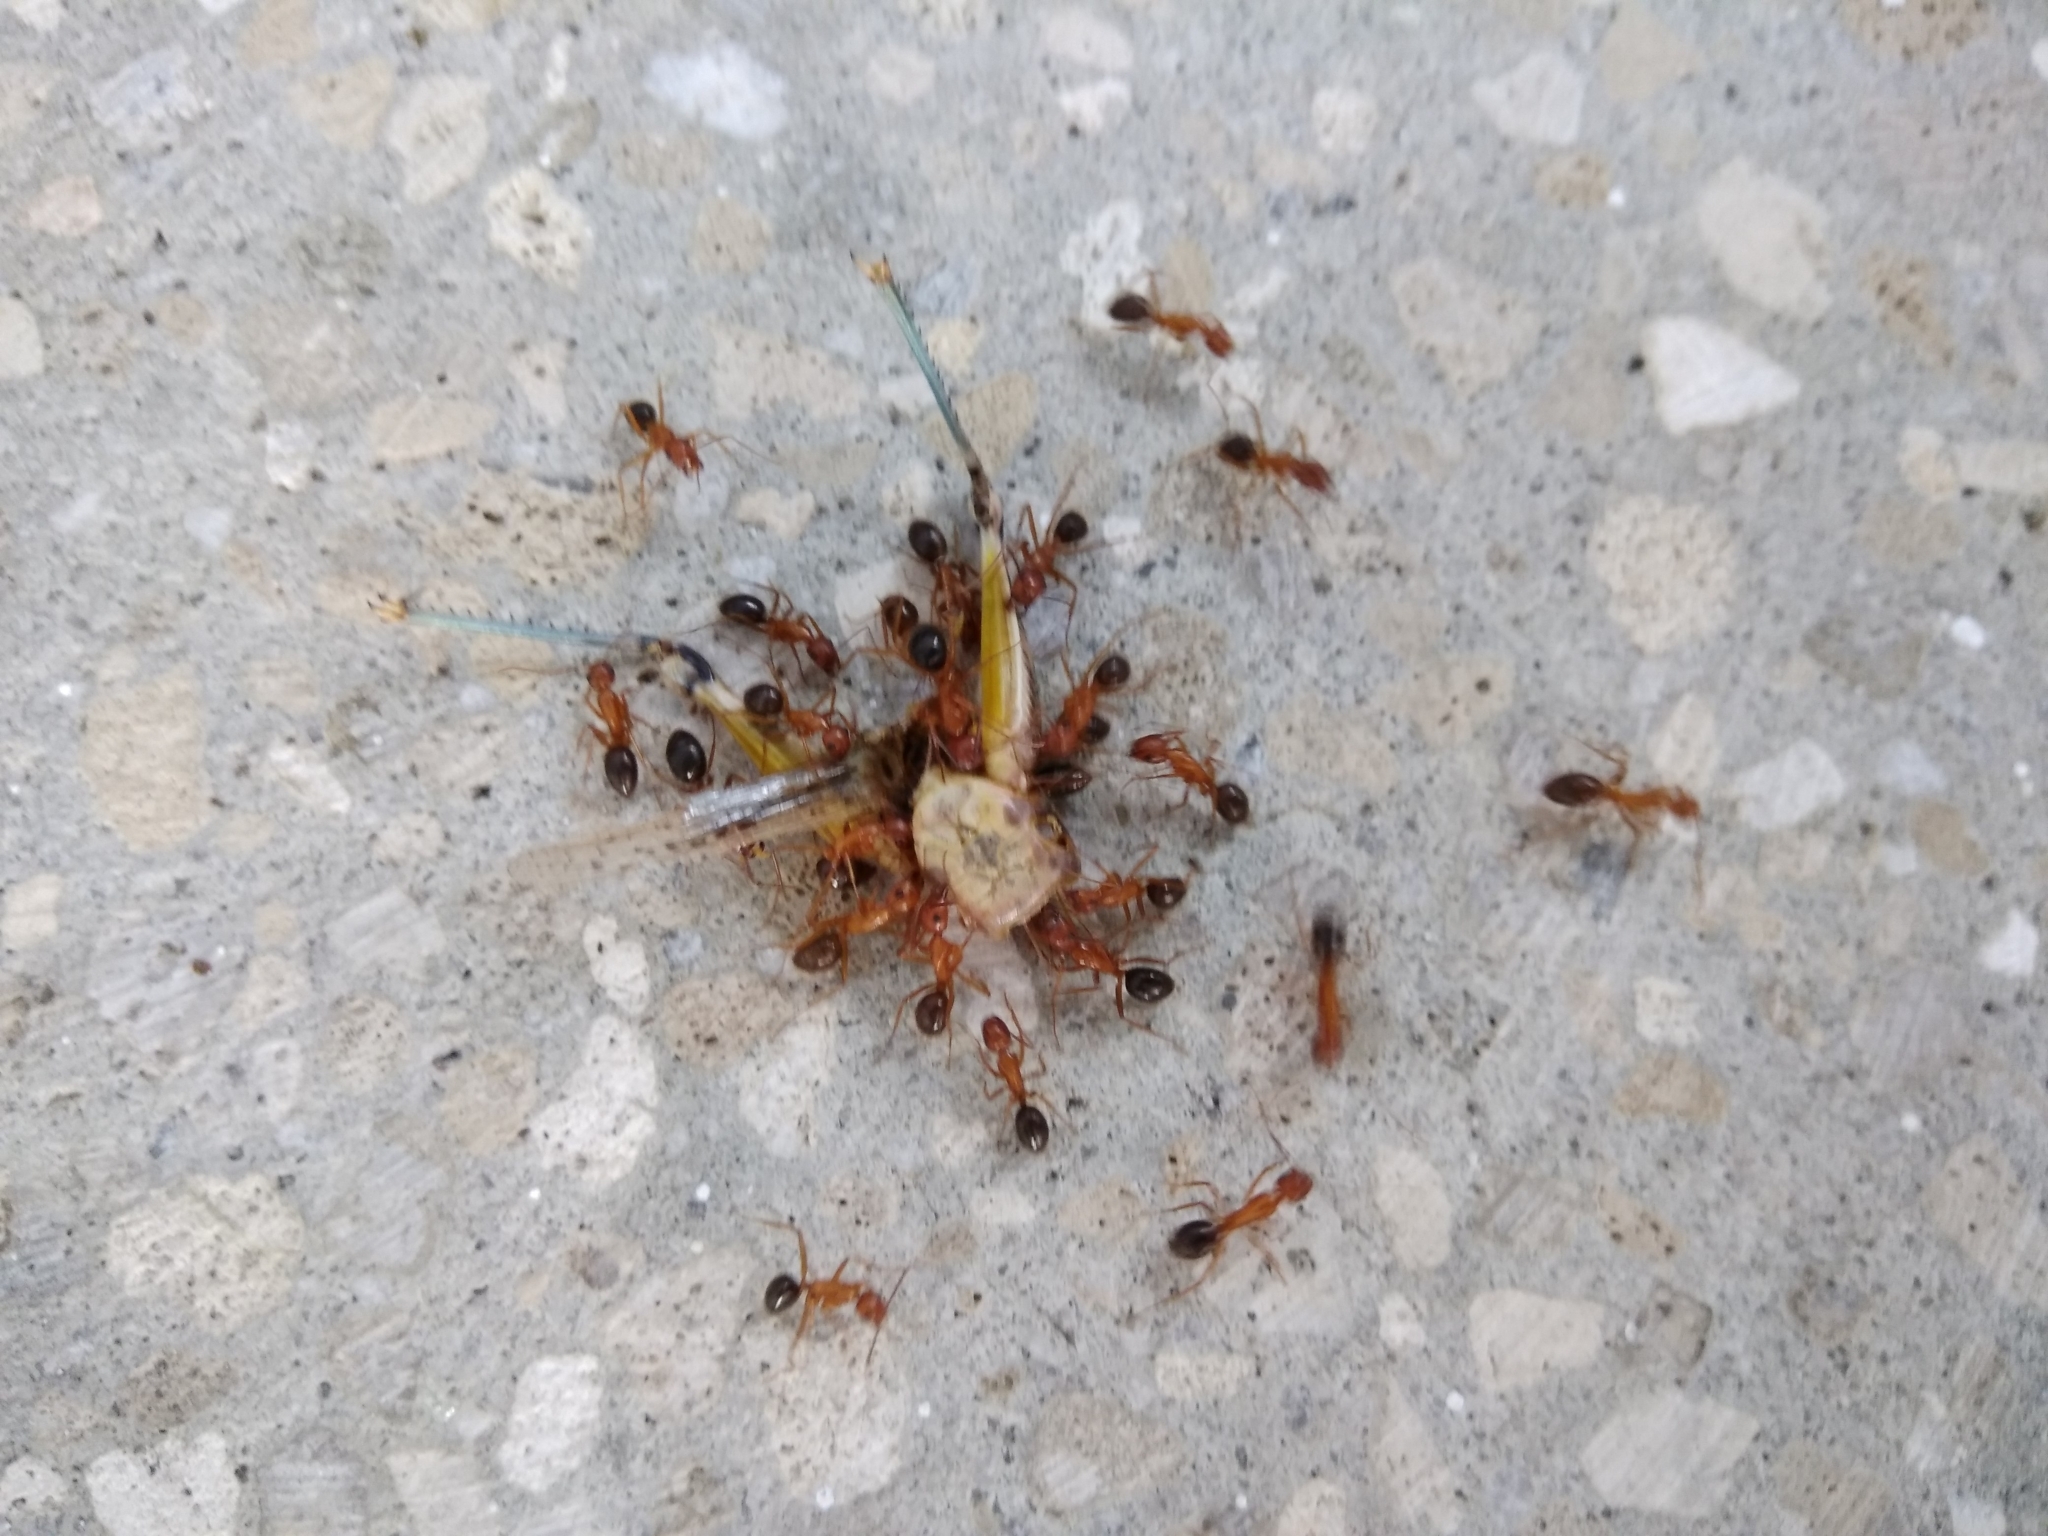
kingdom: Animalia
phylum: Arthropoda
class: Insecta
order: Hymenoptera
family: Formicidae
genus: Camponotus
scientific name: Camponotus floridanus
